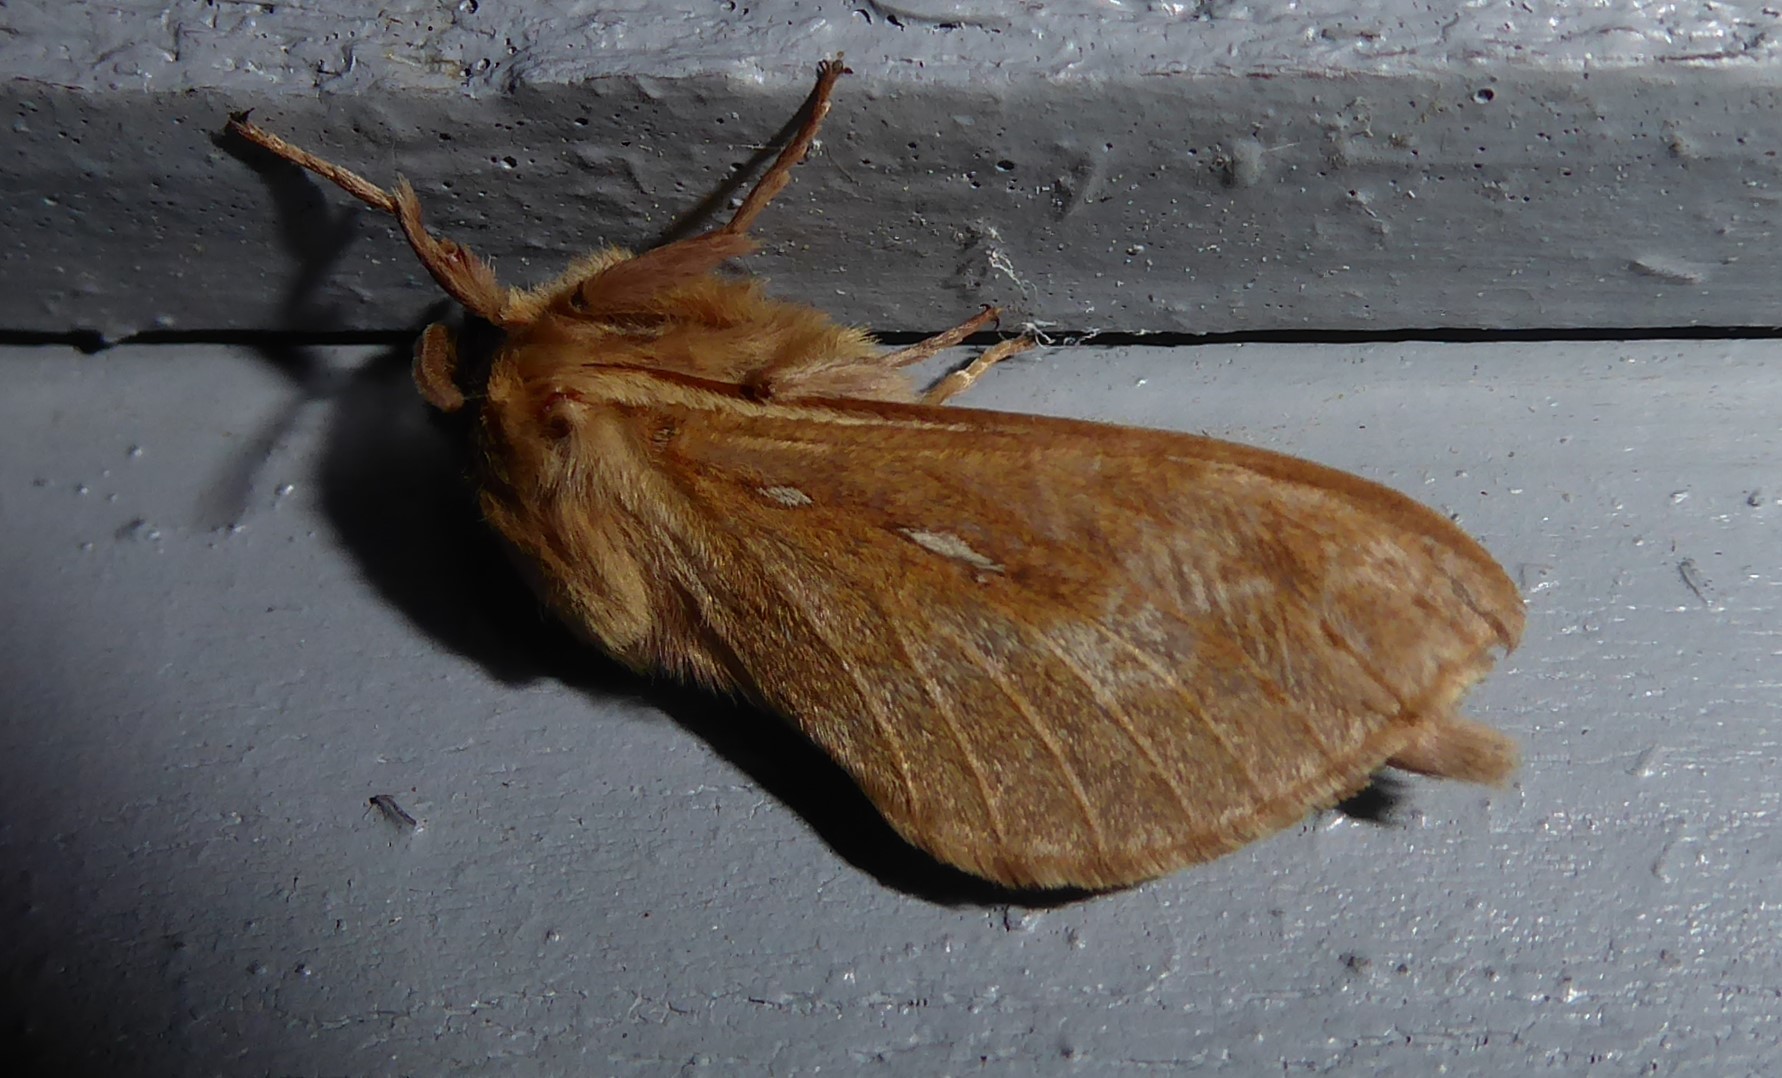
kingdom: Animalia
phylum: Arthropoda
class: Insecta
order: Lepidoptera
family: Hepialidae
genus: Wiseana
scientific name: Wiseana copularis
